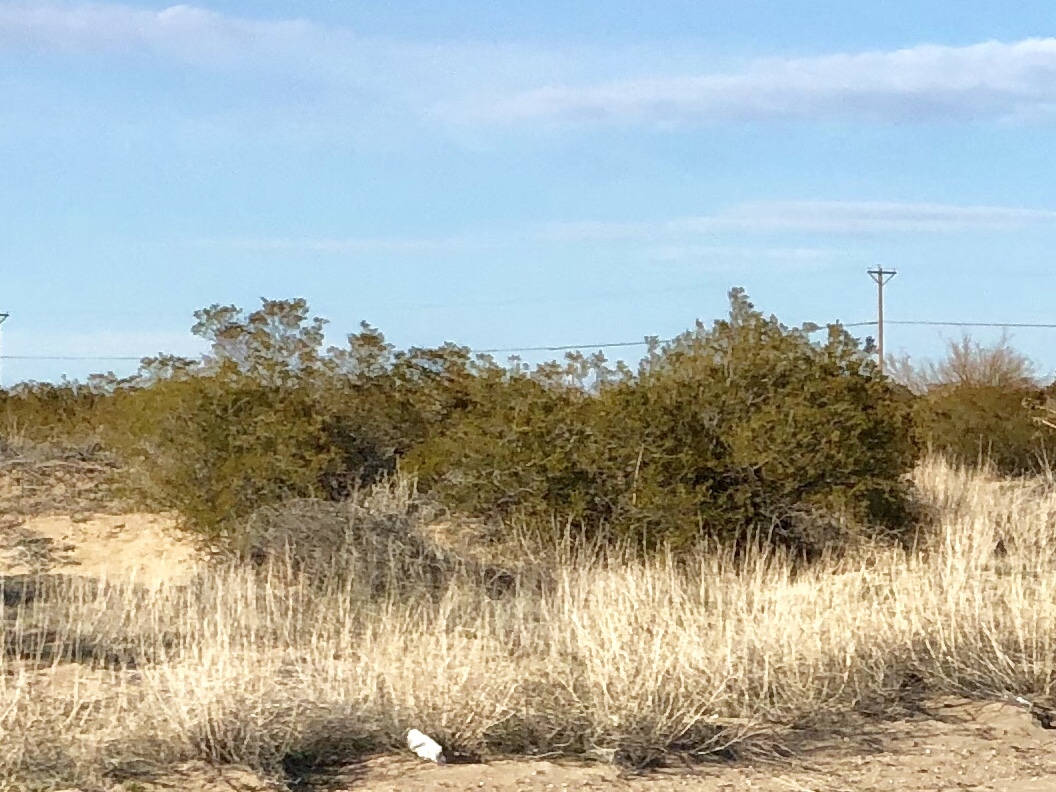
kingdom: Plantae
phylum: Tracheophyta
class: Magnoliopsida
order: Zygophyllales
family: Zygophyllaceae
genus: Larrea
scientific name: Larrea tridentata
